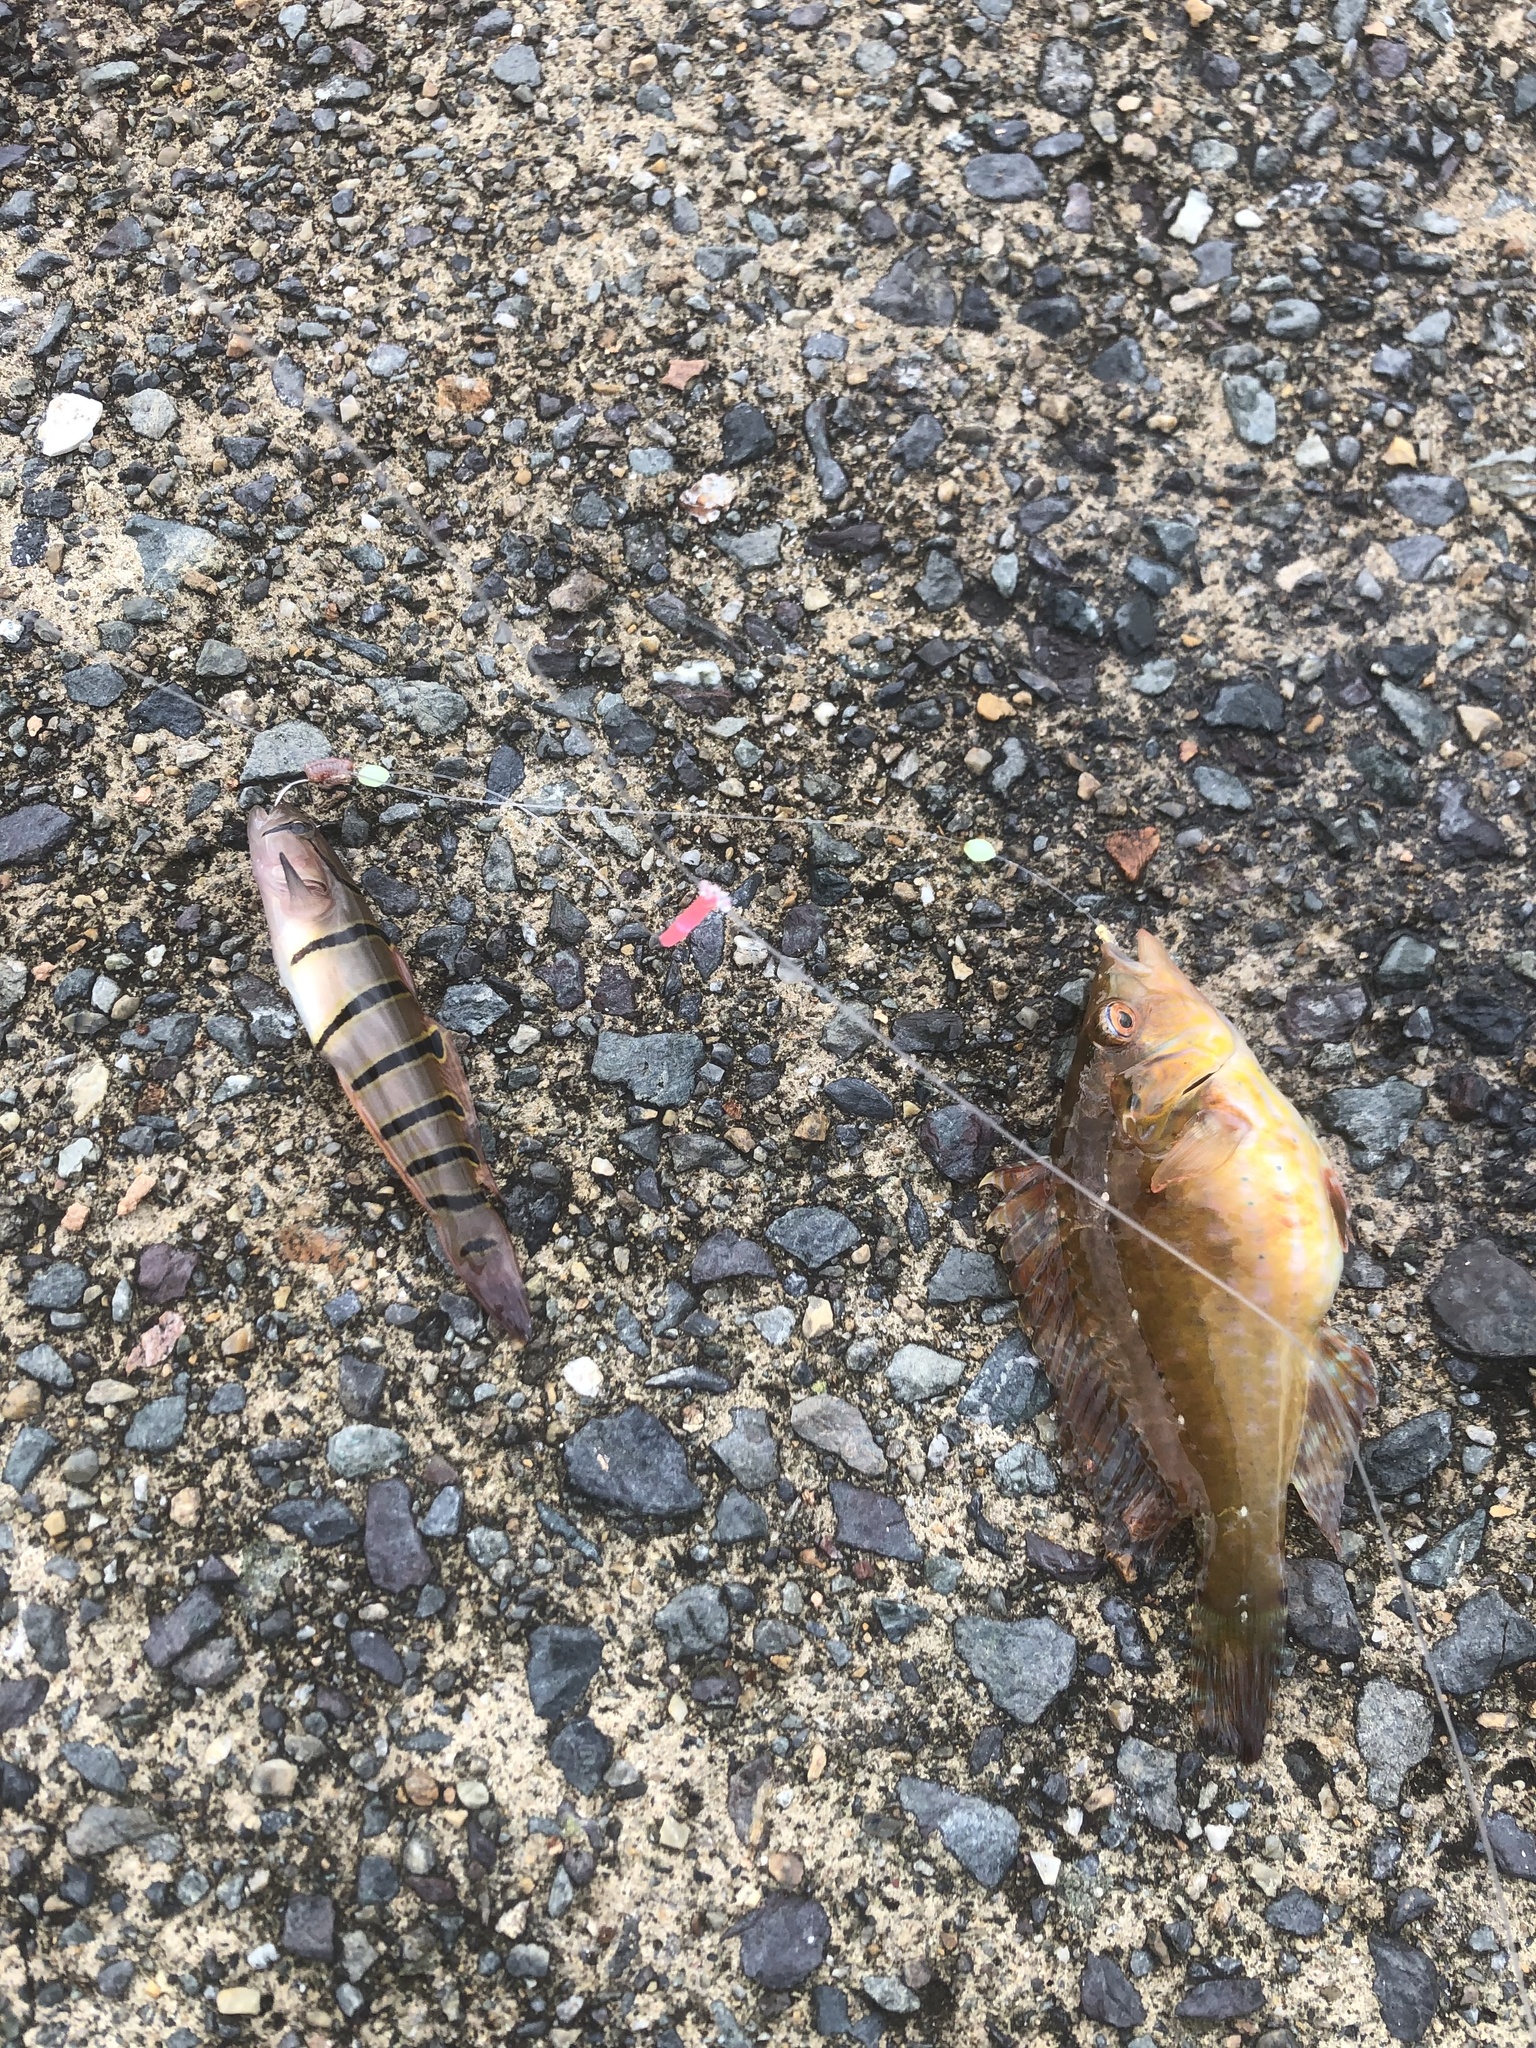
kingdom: Animalia
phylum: Chordata
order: Perciformes
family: Gobiidae
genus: Pterogobius
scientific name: Pterogobius elapoides
